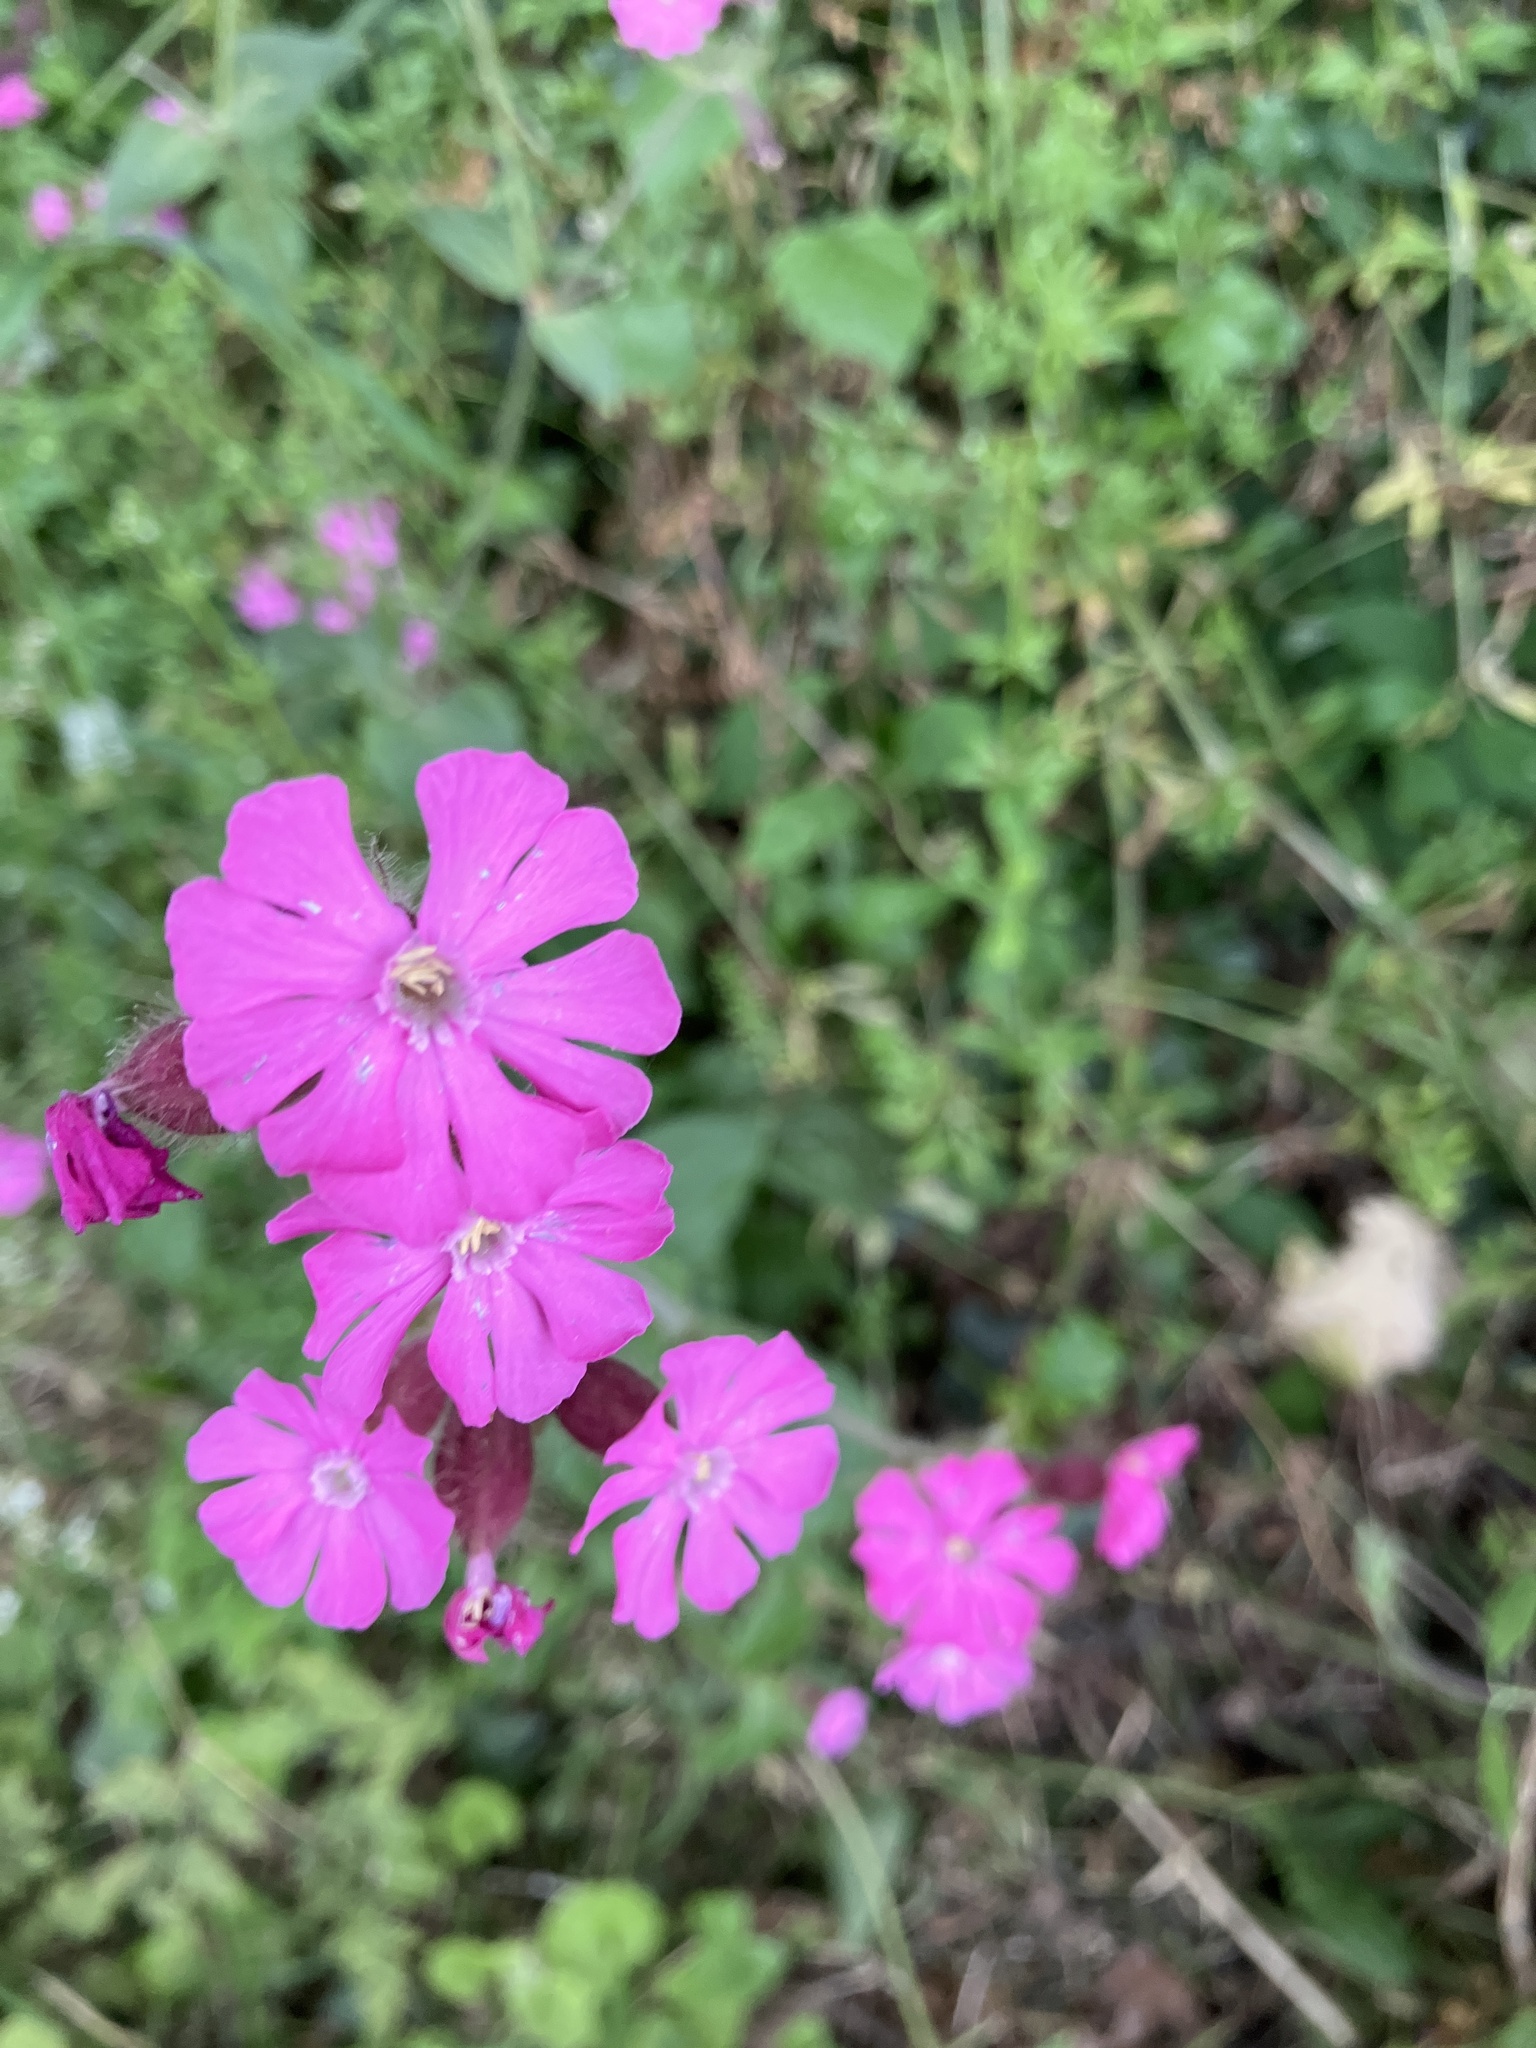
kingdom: Plantae
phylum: Tracheophyta
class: Magnoliopsida
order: Caryophyllales
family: Caryophyllaceae
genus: Silene
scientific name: Silene dioica
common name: Red campion
